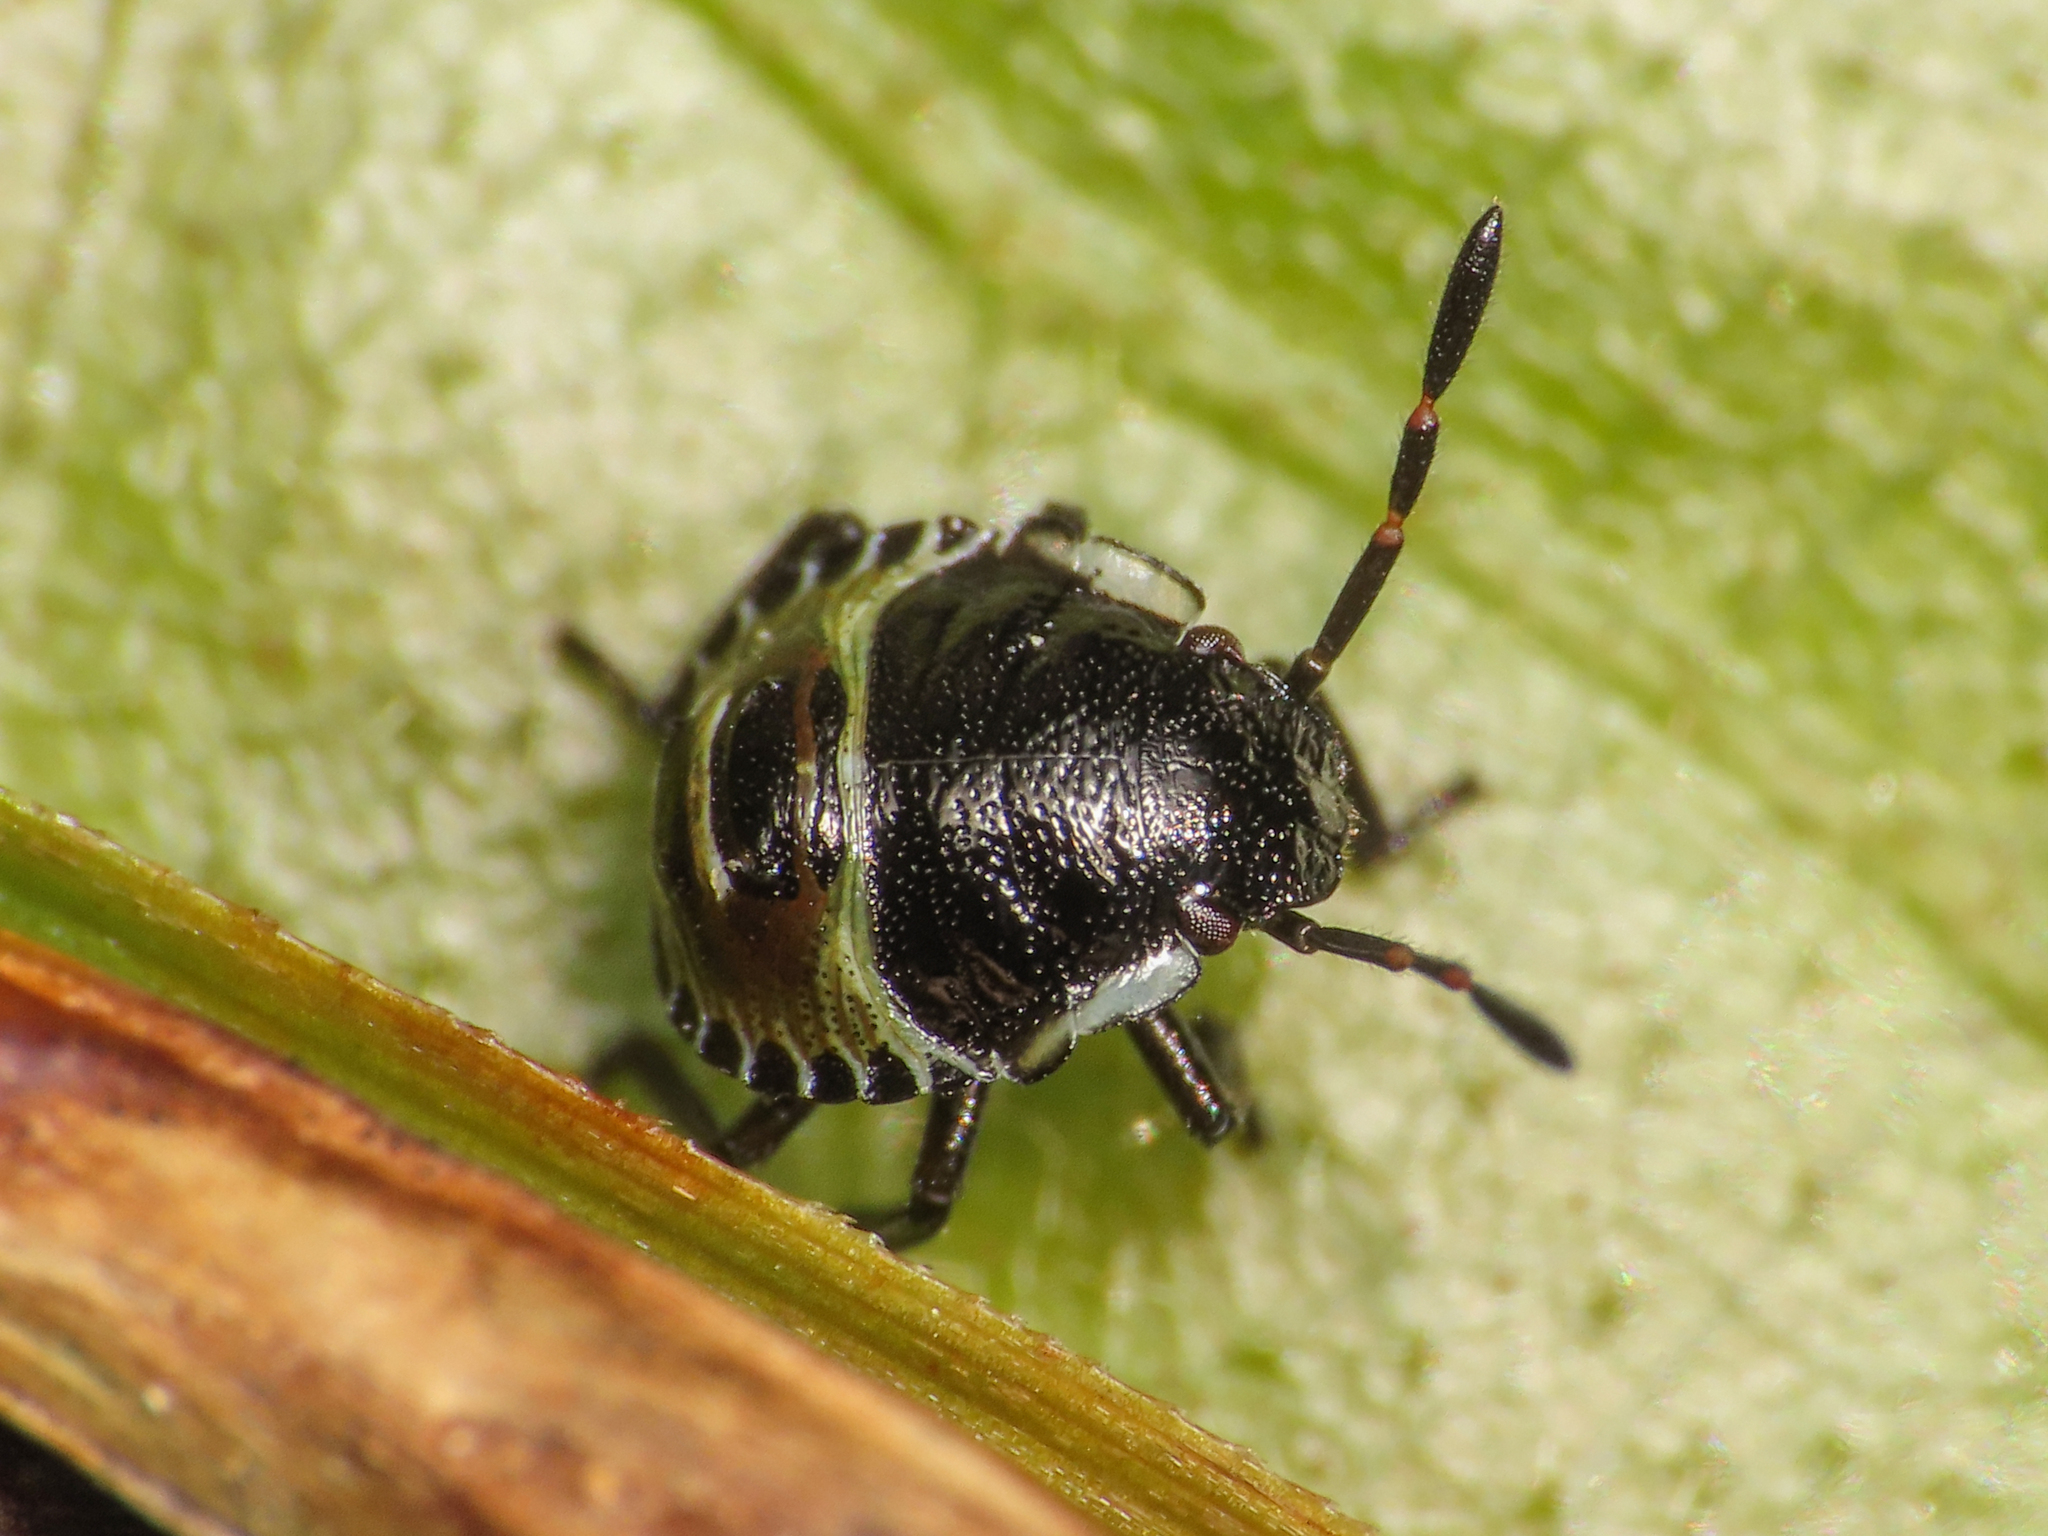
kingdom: Animalia
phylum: Arthropoda
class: Insecta
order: Hemiptera
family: Pentatomidae
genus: Palomena
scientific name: Palomena prasina
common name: Green shieldbug
